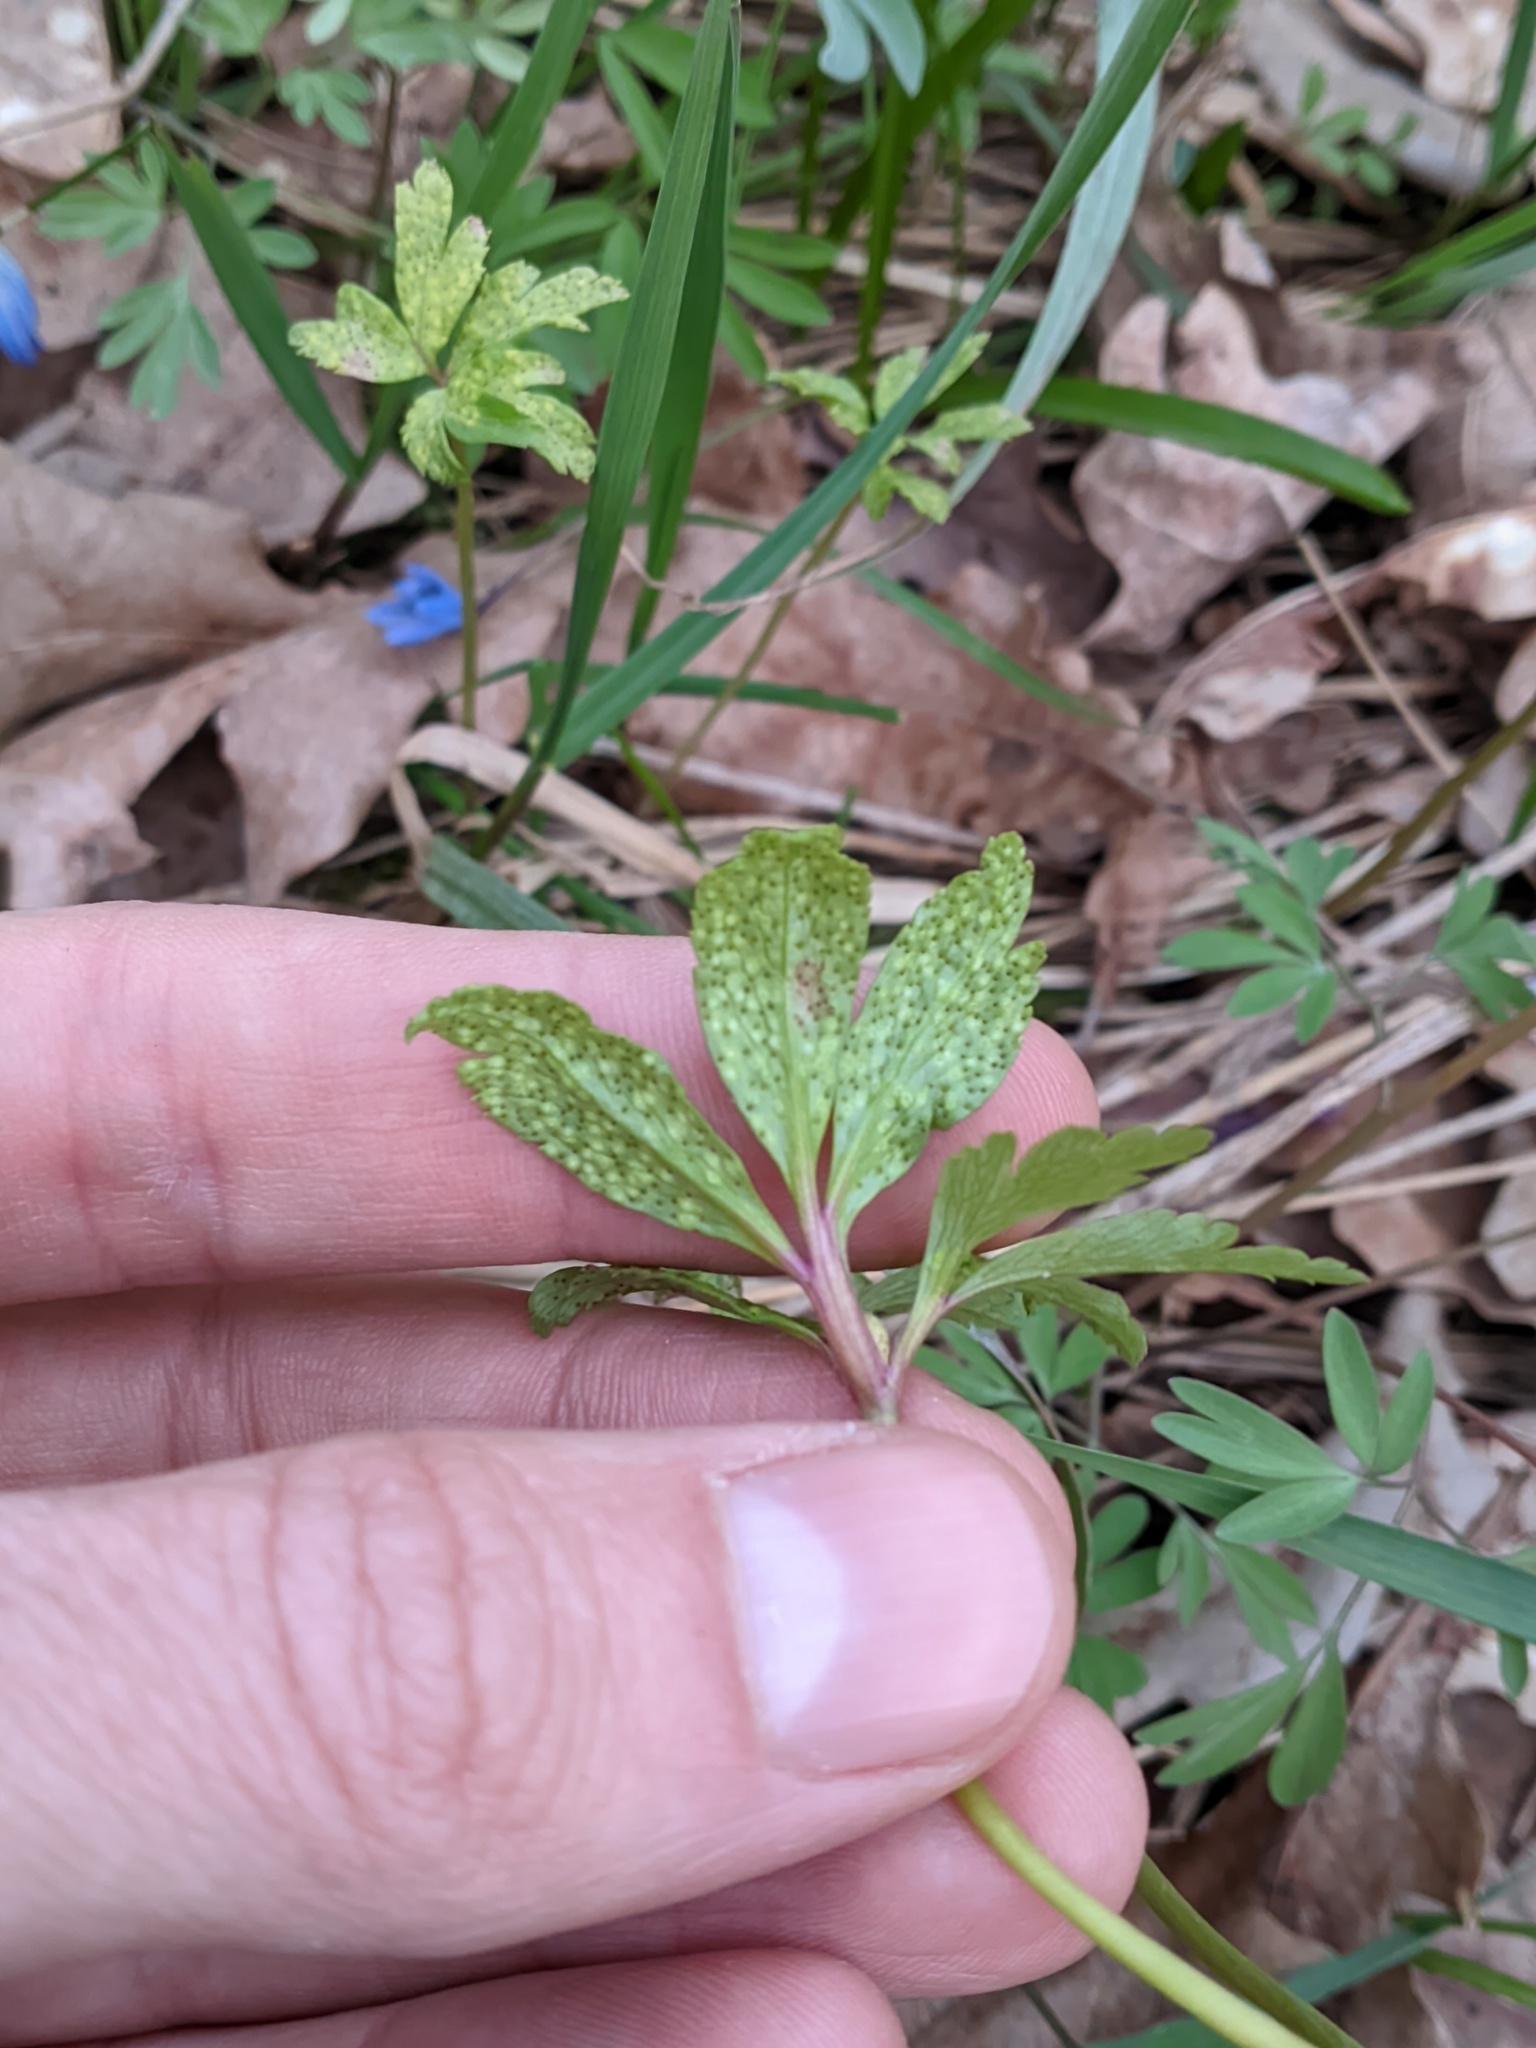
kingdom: Fungi
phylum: Basidiomycota
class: Pucciniomycetes
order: Pucciniales
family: Tranzscheliaceae
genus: Tranzschelia
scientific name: Tranzschelia pruni-spinosae
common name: Blackthorn rust
